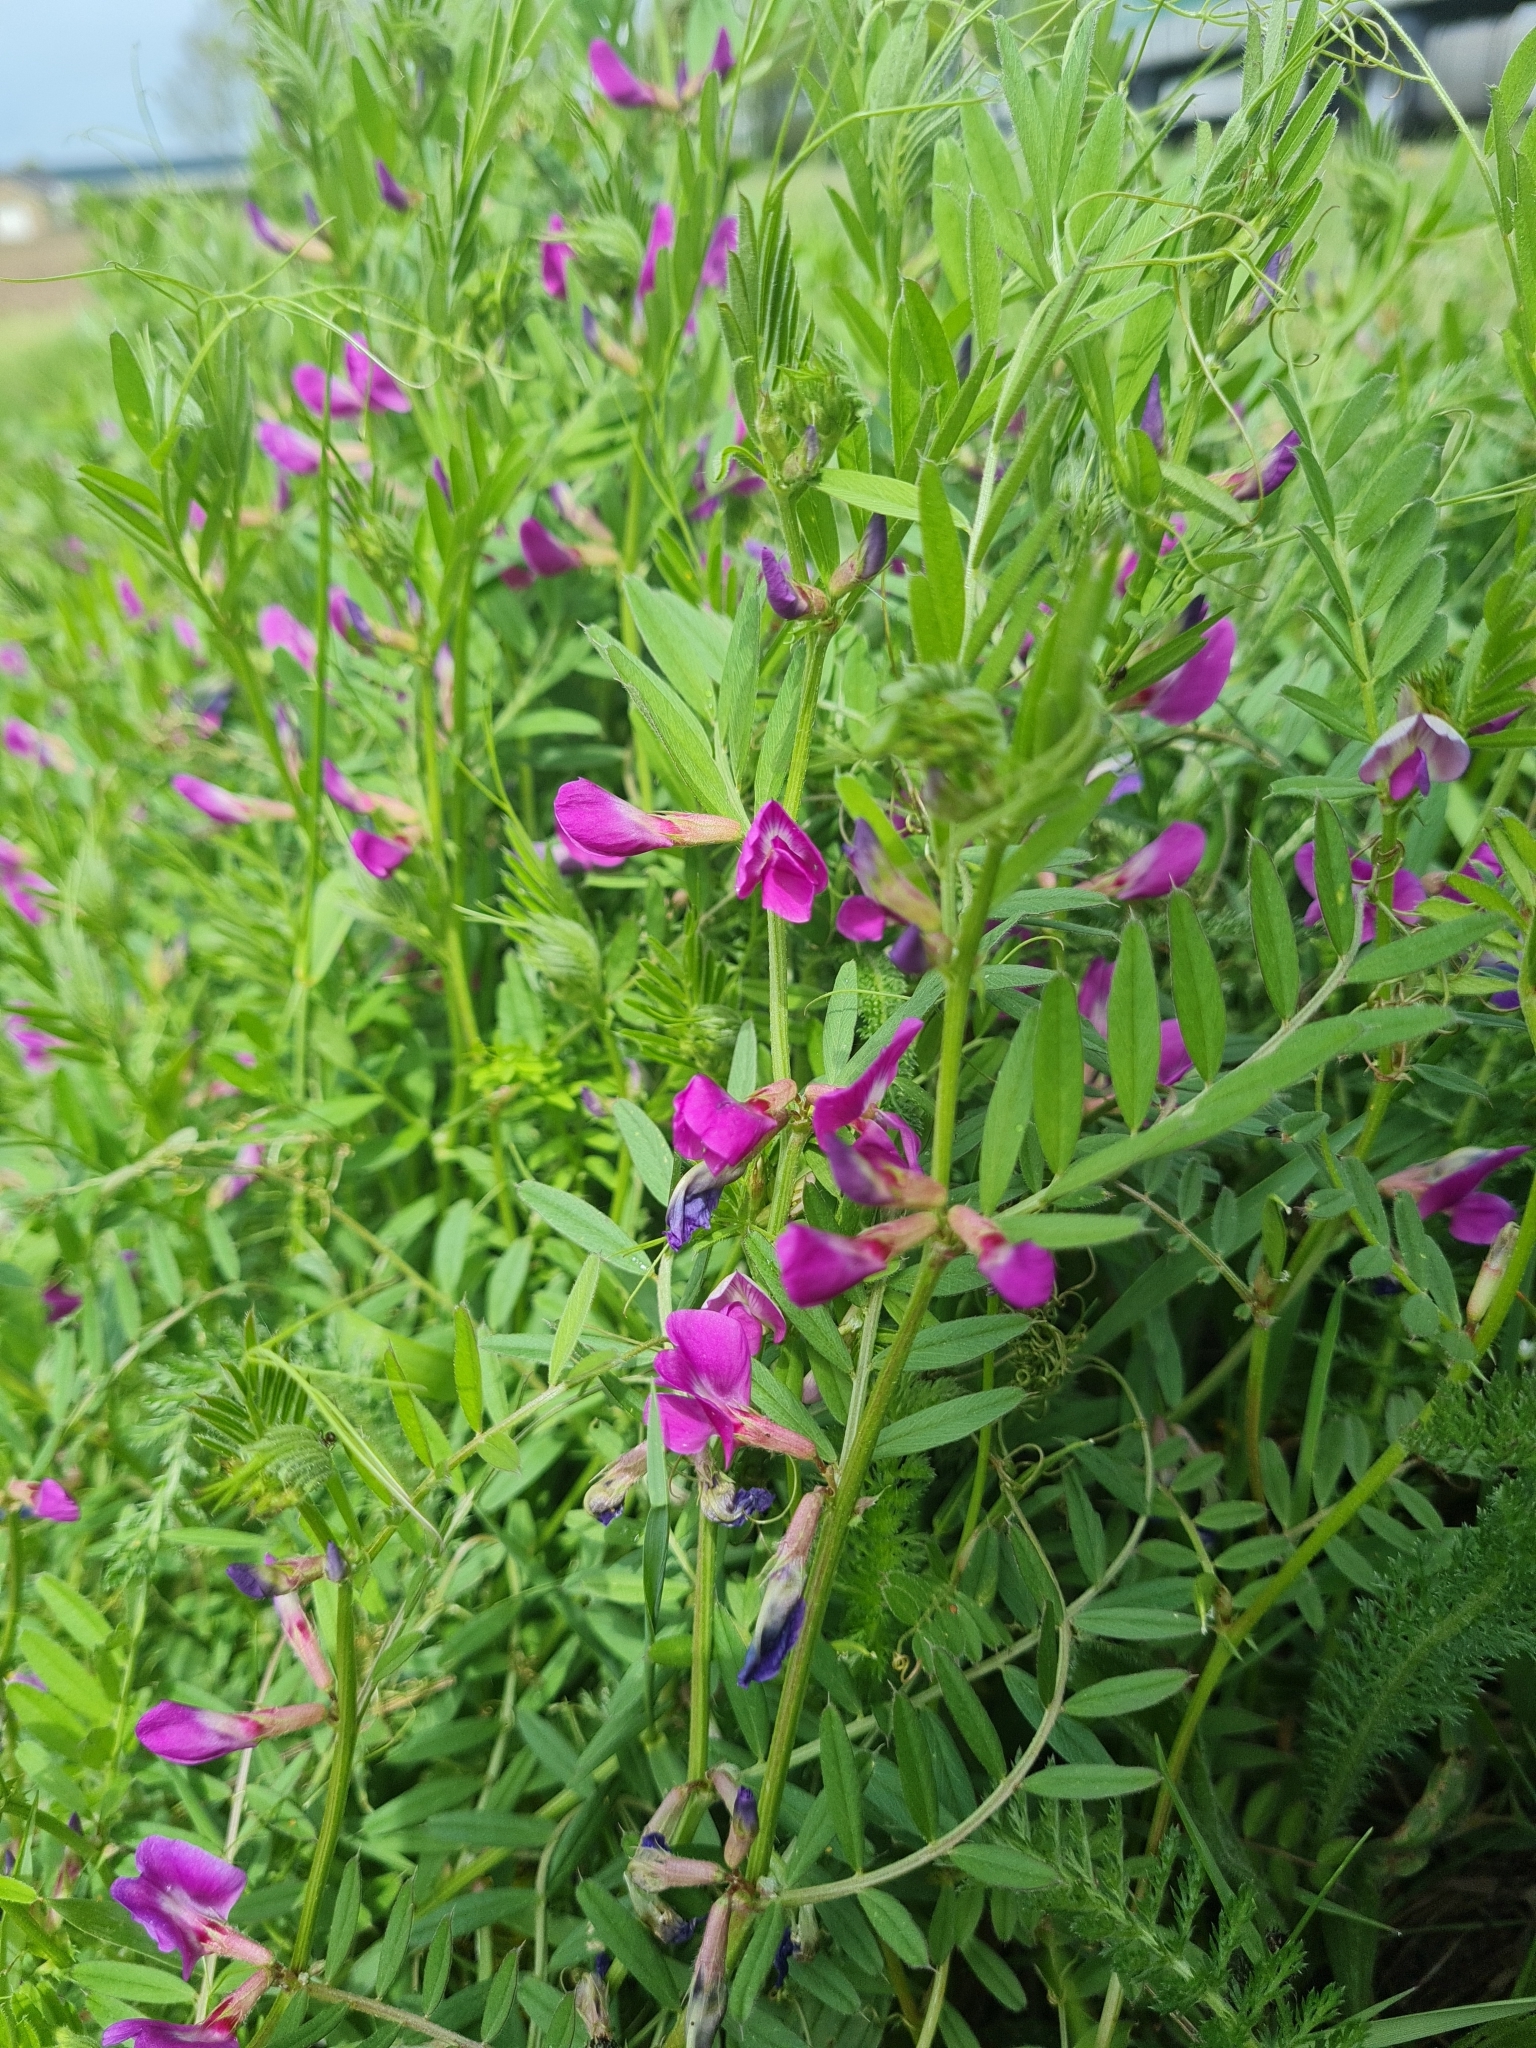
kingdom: Plantae
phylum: Tracheophyta
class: Magnoliopsida
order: Fabales
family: Fabaceae
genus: Vicia
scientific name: Vicia sativa
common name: Garden vetch
